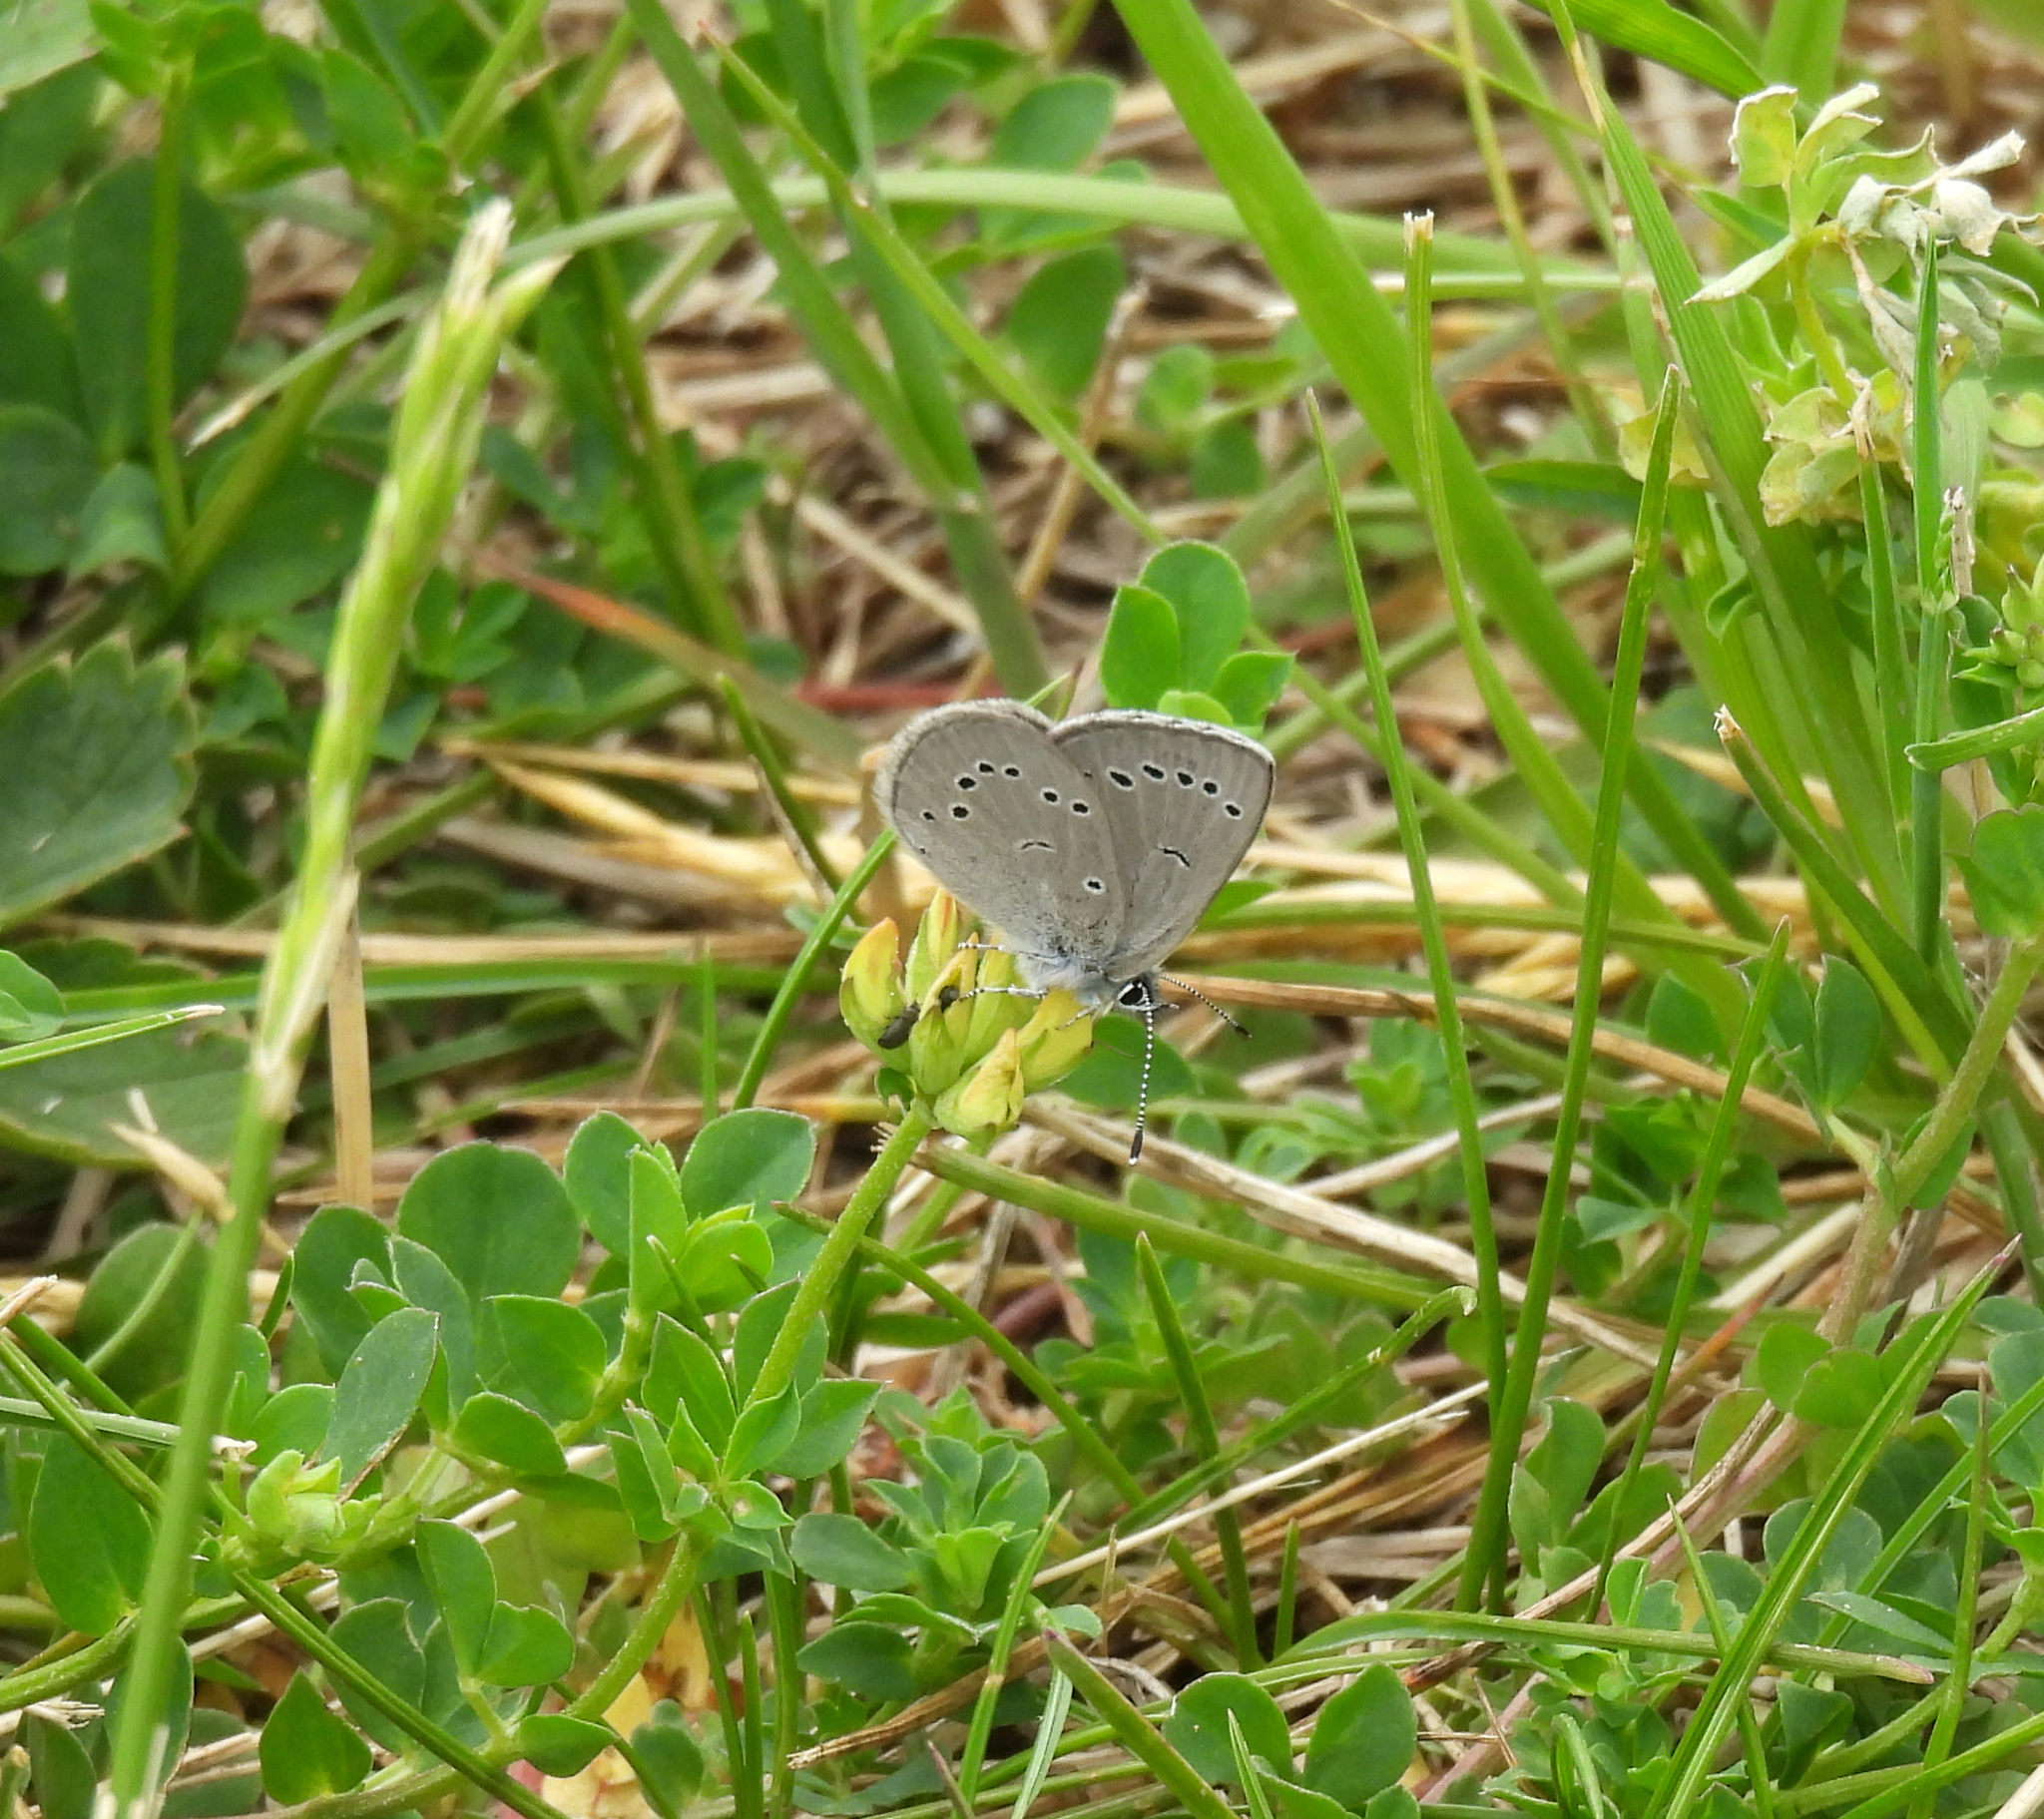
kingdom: Animalia
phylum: Arthropoda
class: Insecta
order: Lepidoptera
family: Lycaenidae
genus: Glaucopsyche
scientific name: Glaucopsyche lygdamus
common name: Silvery blue
